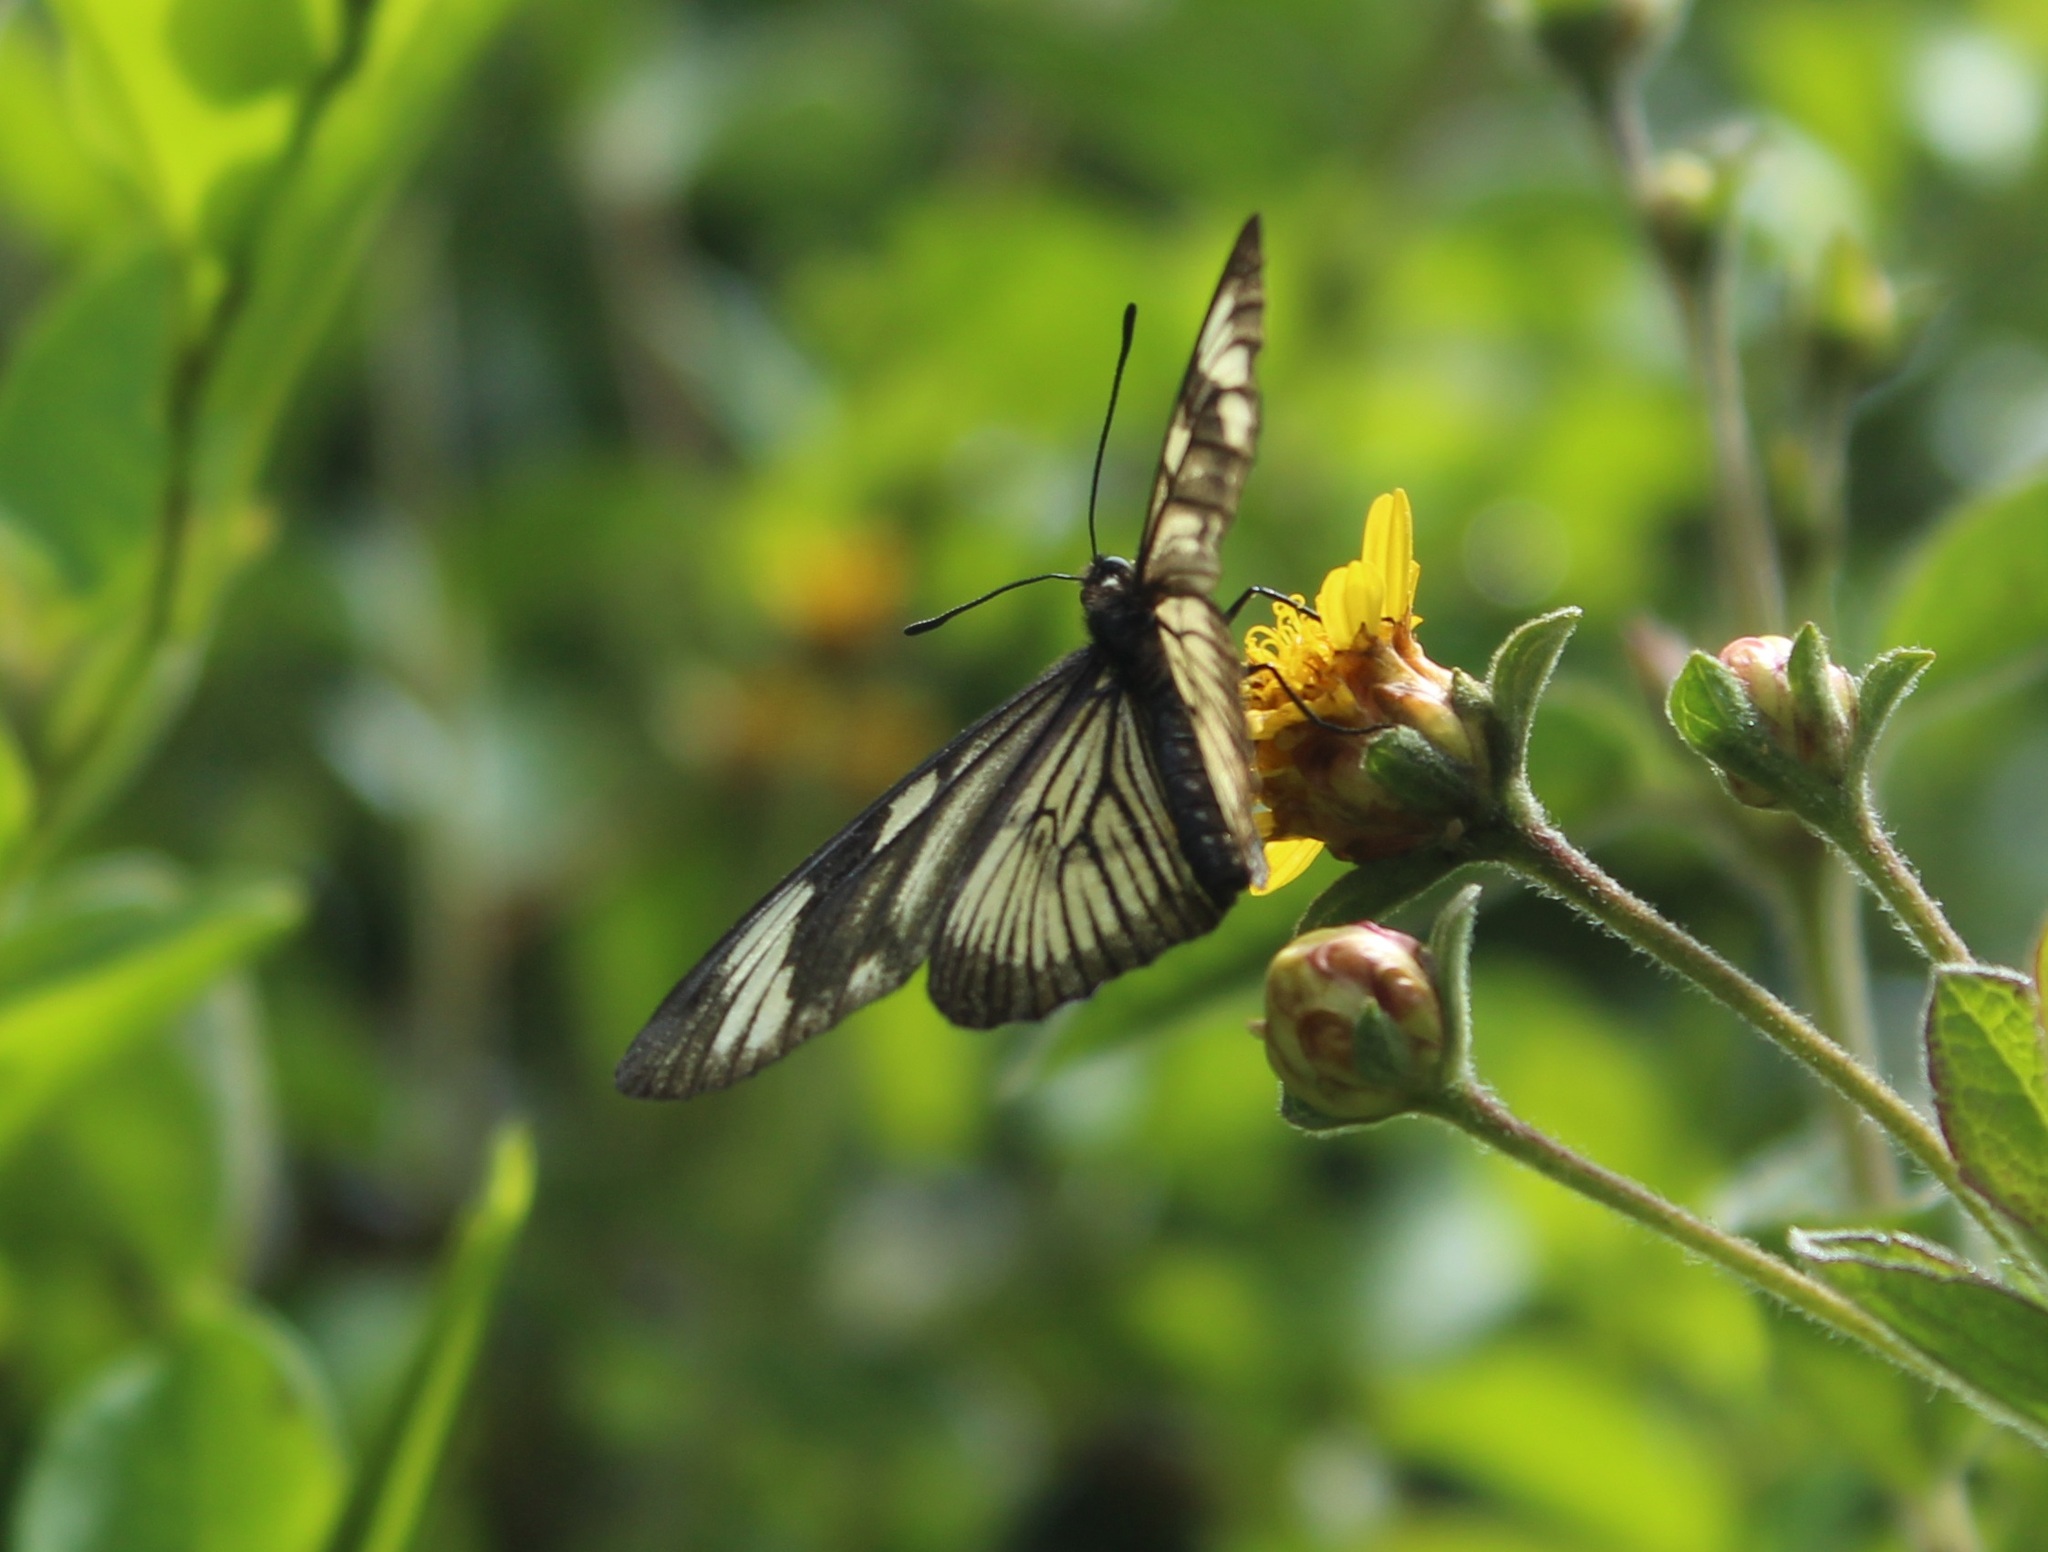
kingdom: Animalia
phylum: Arthropoda
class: Insecta
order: Lepidoptera
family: Nymphalidae
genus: Actinote
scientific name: Actinote anteas
